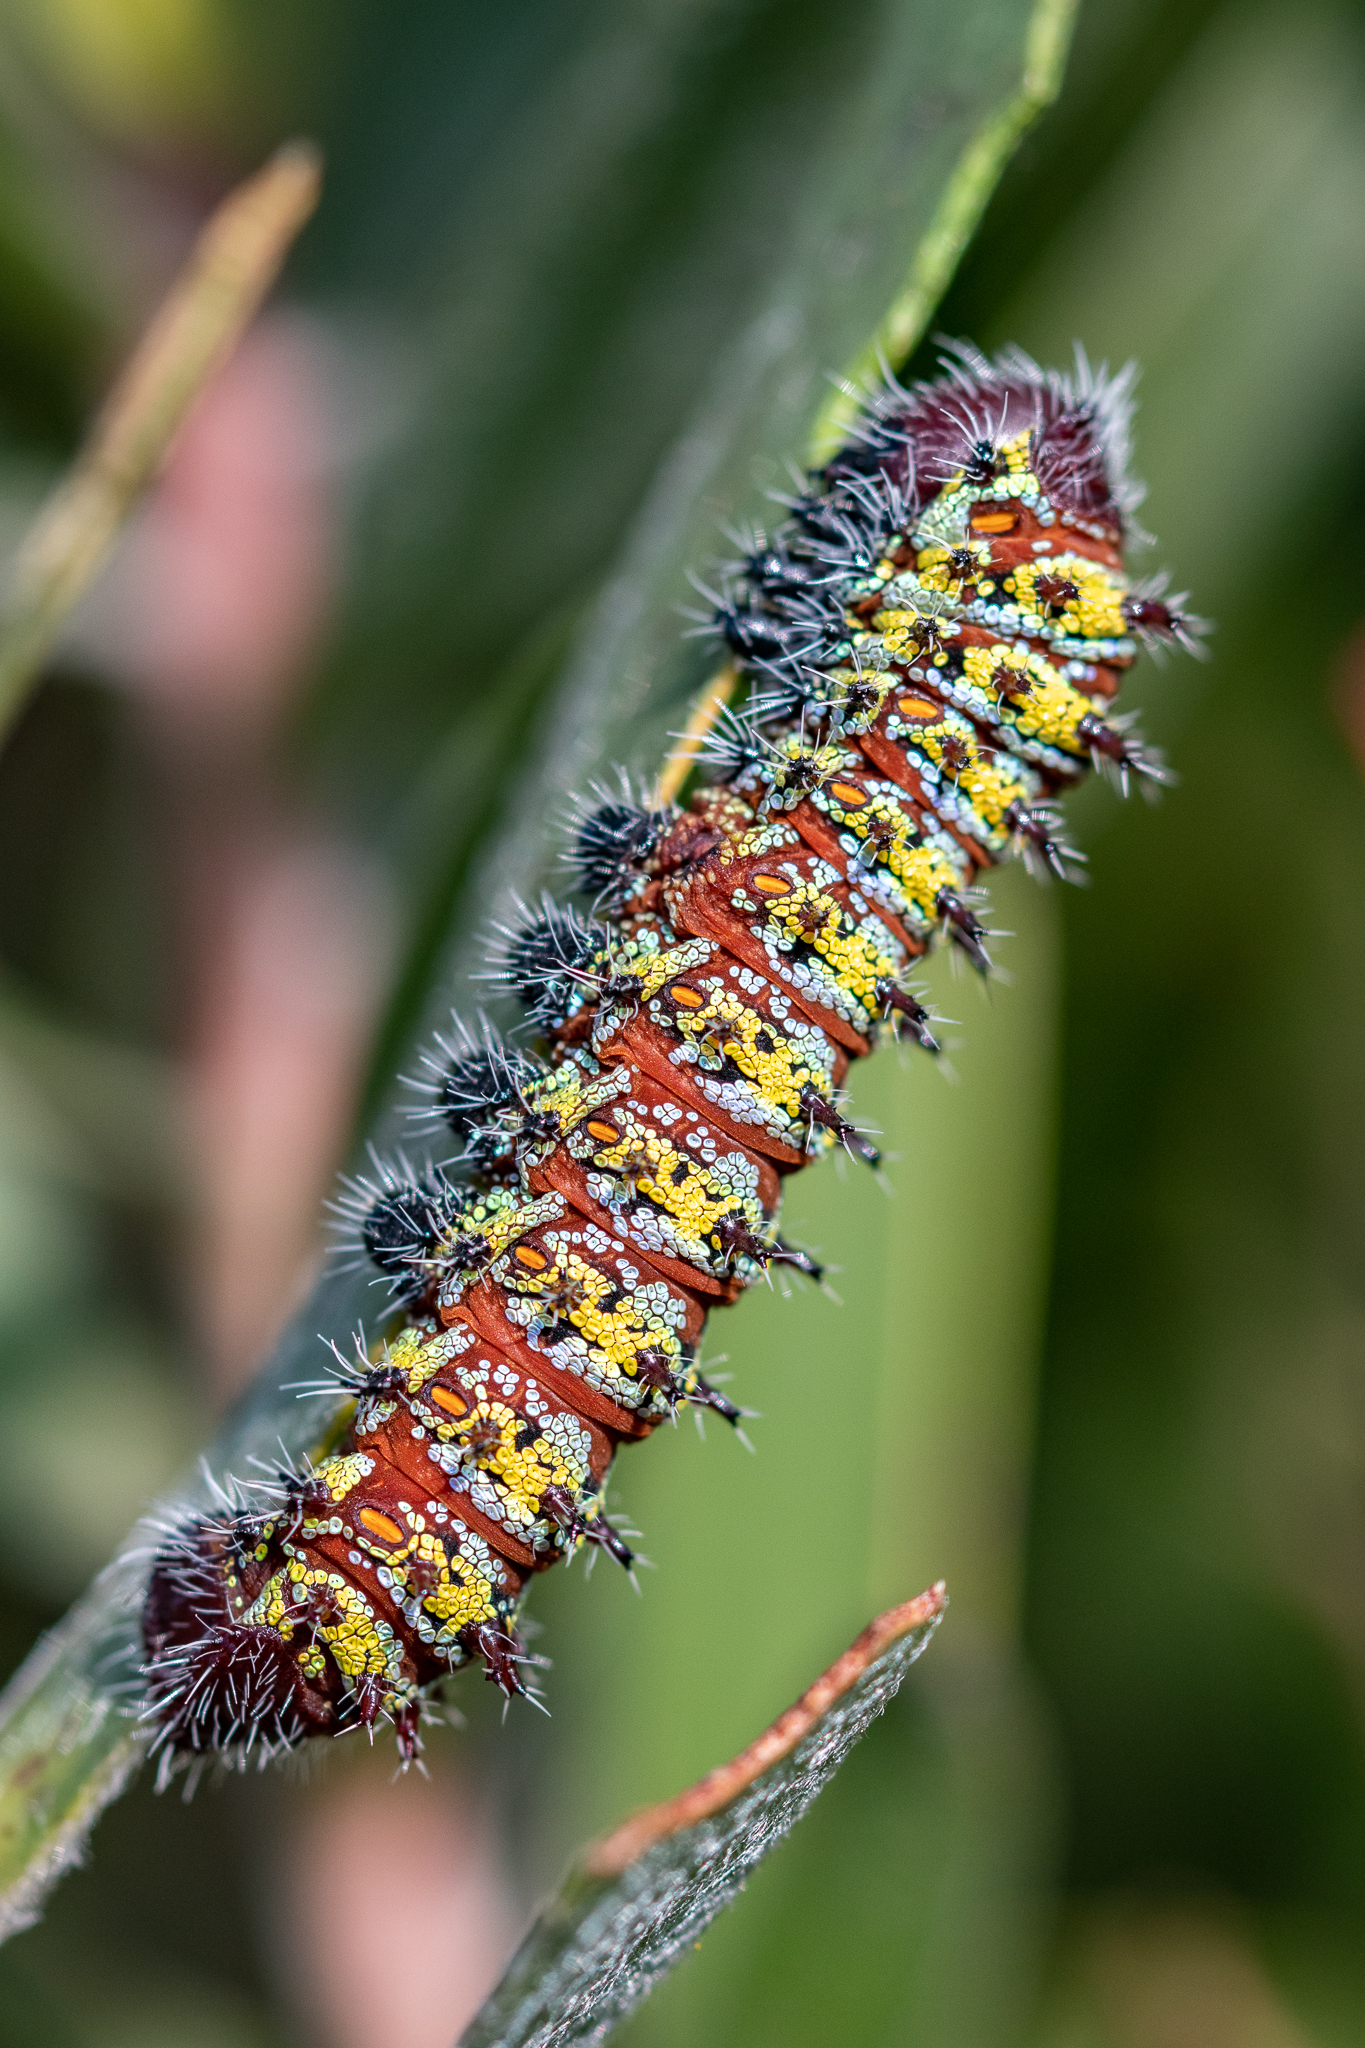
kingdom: Animalia
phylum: Arthropoda
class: Insecta
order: Lepidoptera
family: Saturniidae
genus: Nudaurelia
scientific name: Nudaurelia cytherea
